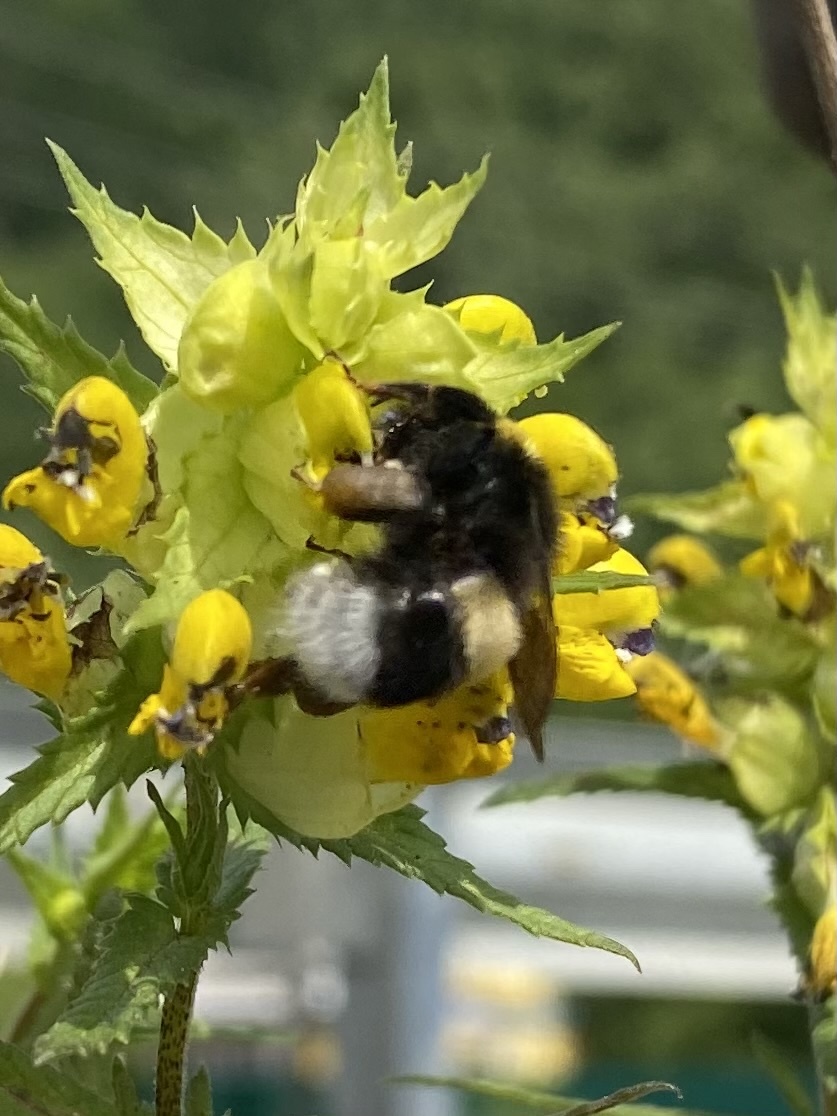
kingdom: Animalia
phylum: Arthropoda
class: Insecta
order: Hymenoptera
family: Apidae
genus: Bombus
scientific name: Bombus
